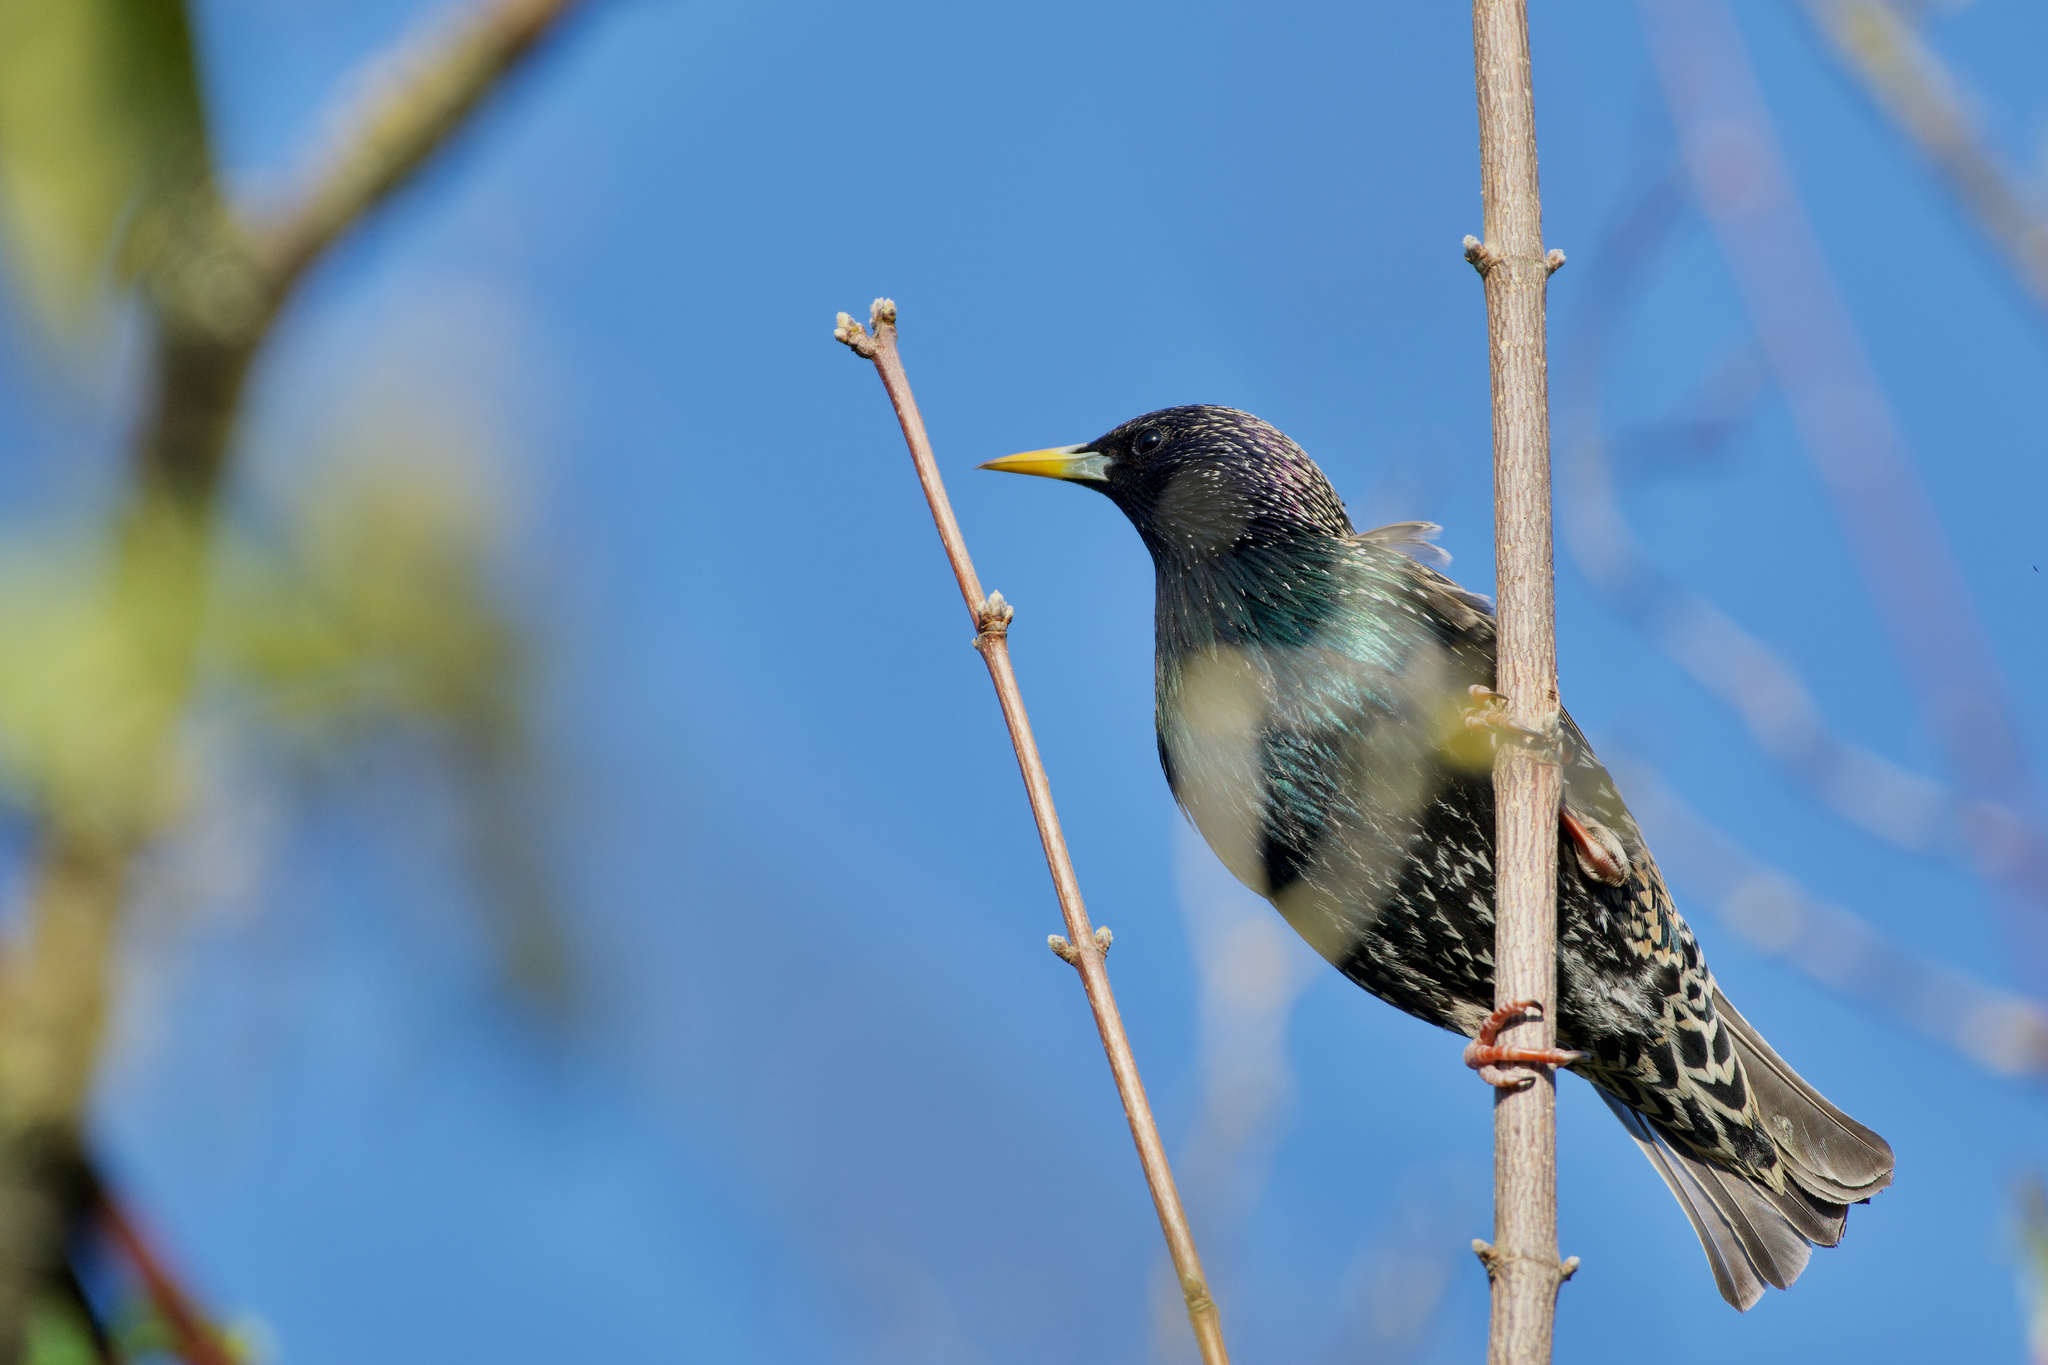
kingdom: Animalia
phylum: Chordata
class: Aves
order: Passeriformes
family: Sturnidae
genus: Sturnus
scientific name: Sturnus vulgaris
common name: Common starling
